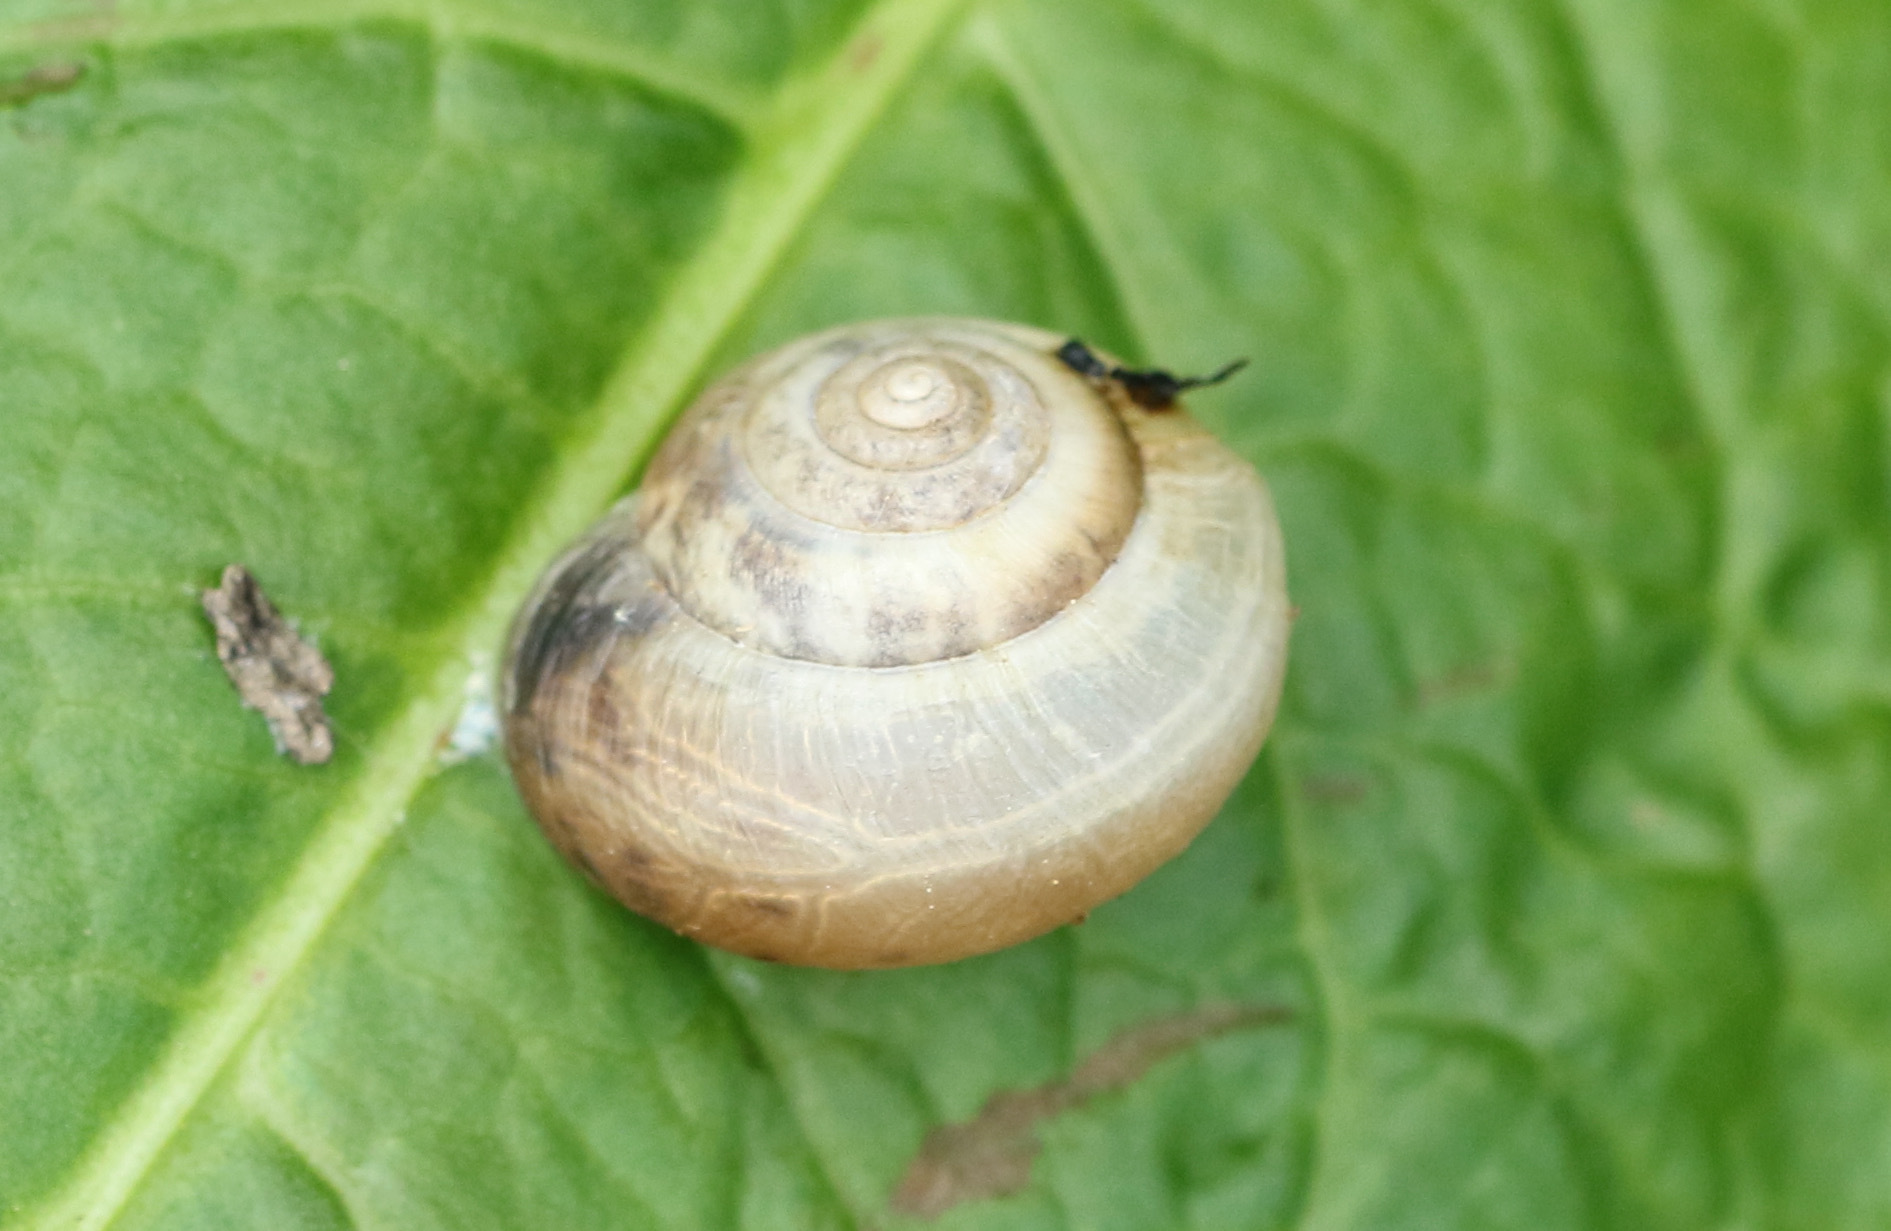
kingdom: Animalia
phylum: Mollusca
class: Gastropoda
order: Stylommatophora
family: Hygromiidae
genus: Monacha
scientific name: Monacha cantiana
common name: Kentish snail
